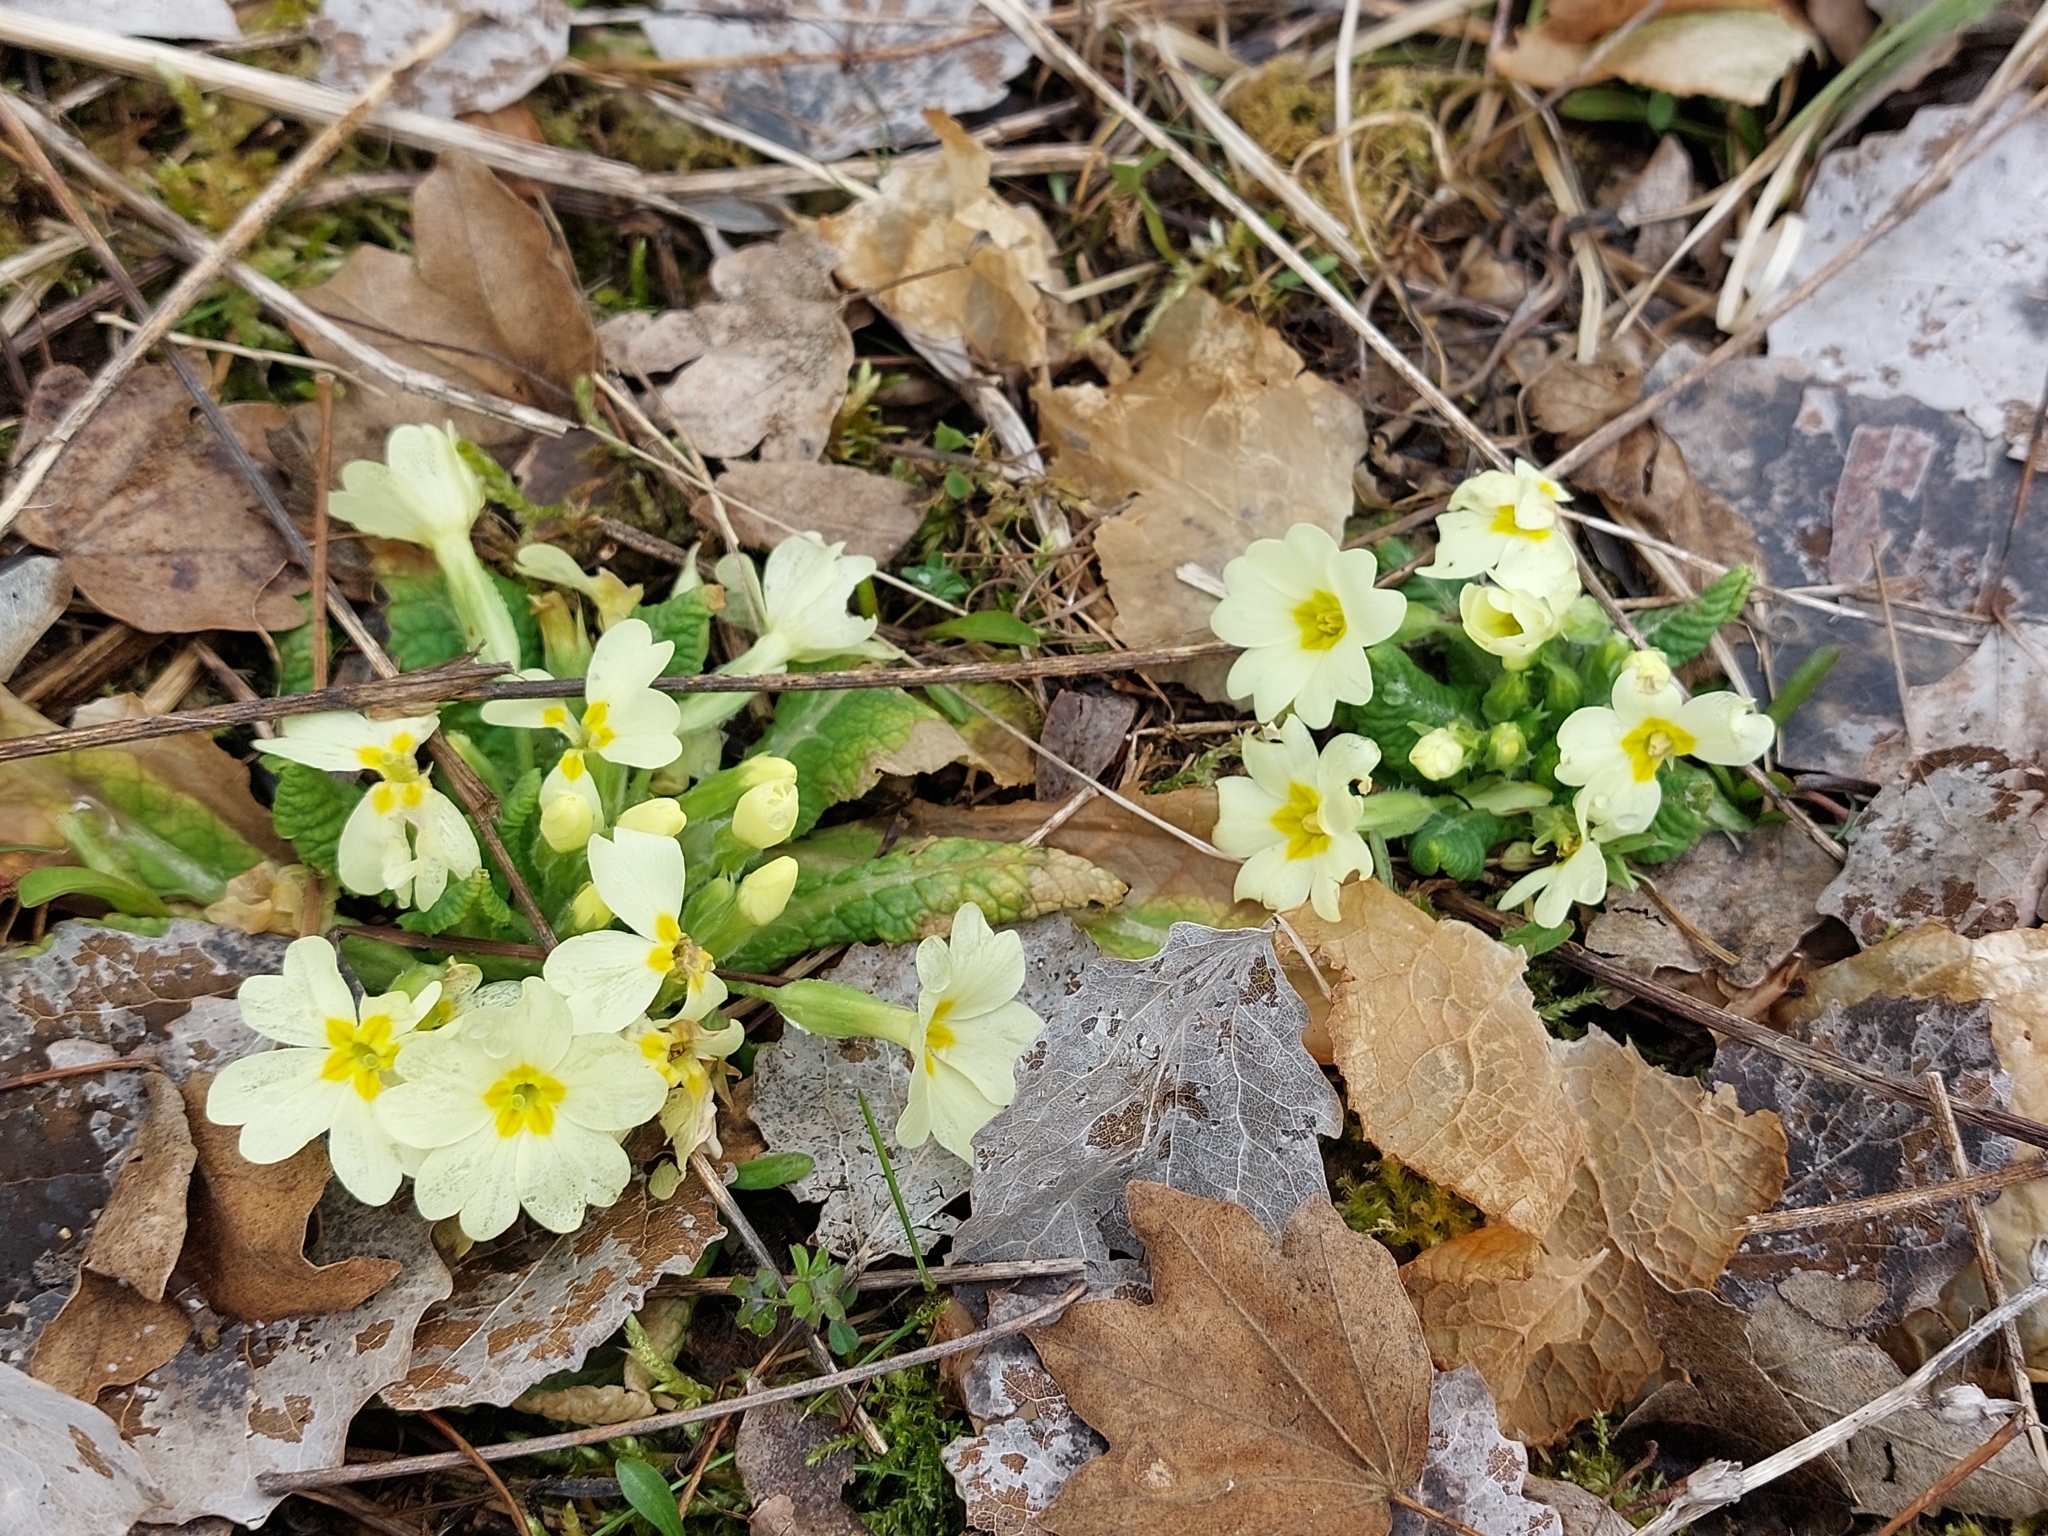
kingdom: Plantae
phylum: Tracheophyta
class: Magnoliopsida
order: Ericales
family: Primulaceae
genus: Primula
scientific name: Primula vulgaris
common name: Primrose
